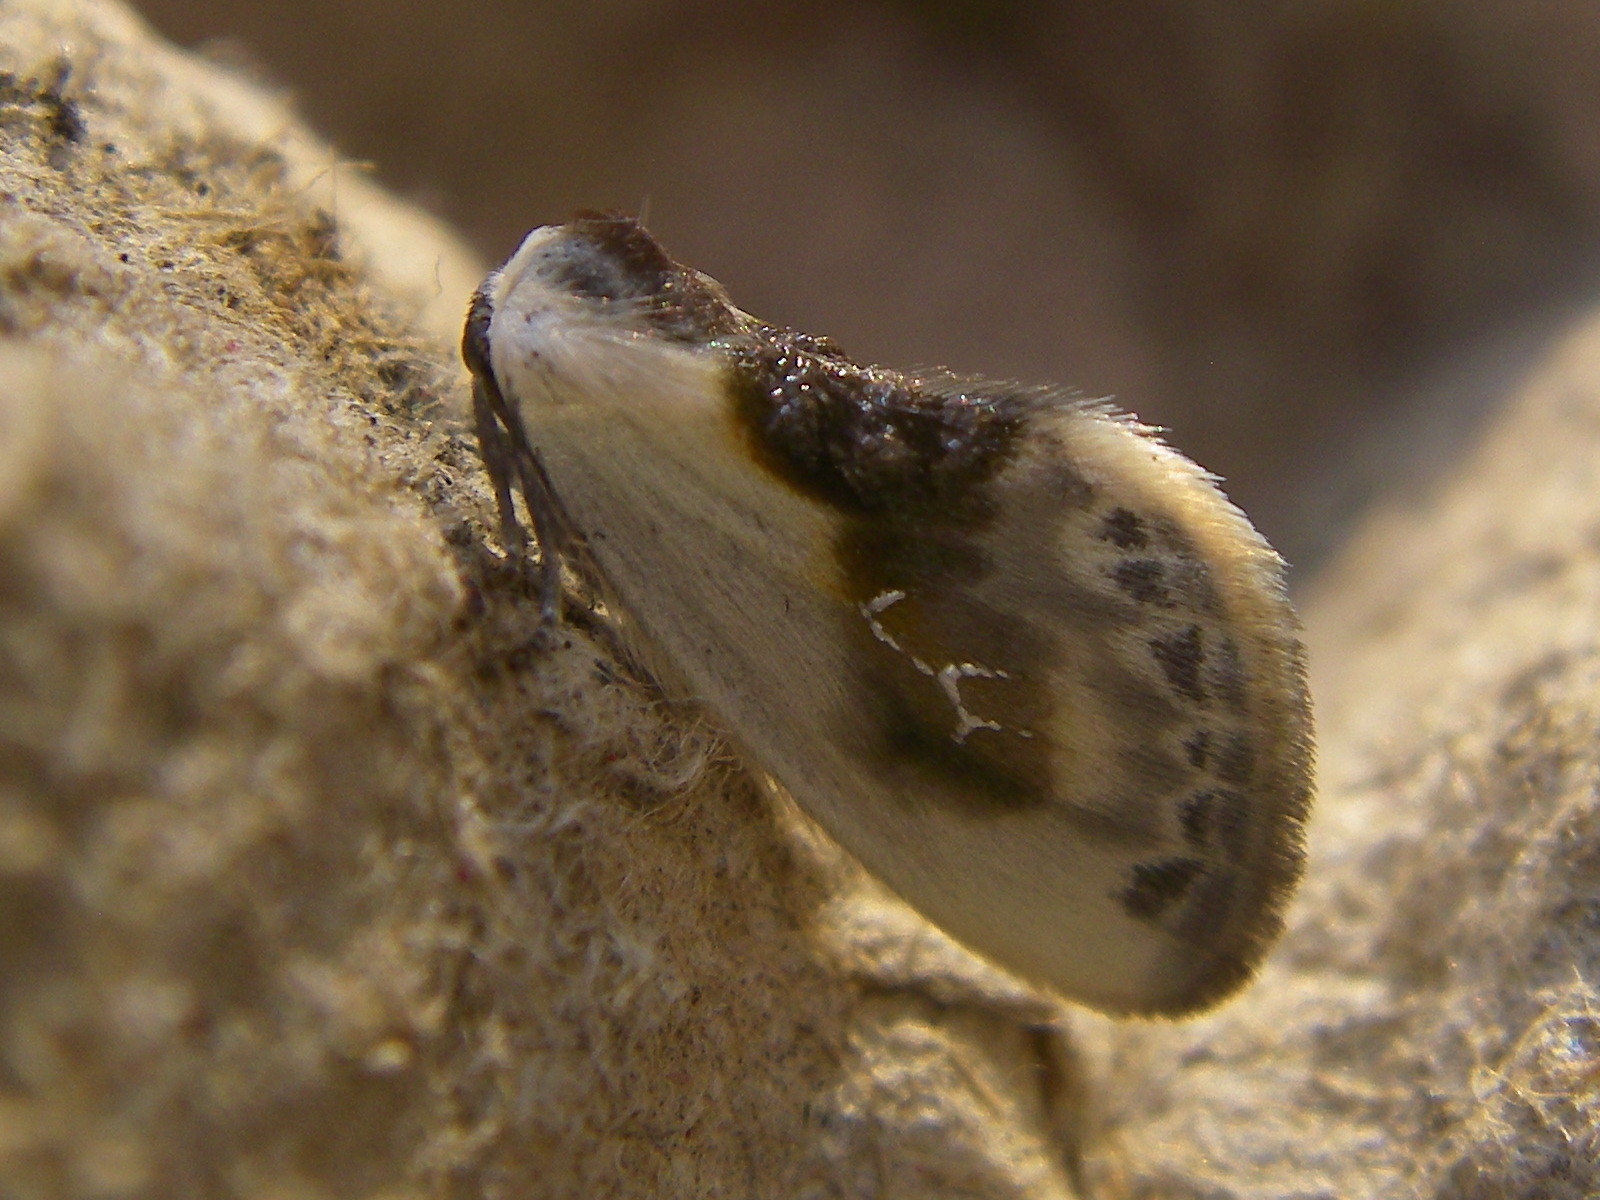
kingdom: Animalia
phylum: Arthropoda
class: Insecta
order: Lepidoptera
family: Drepanidae
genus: Cilix
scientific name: Cilix glaucata
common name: Chinese character
